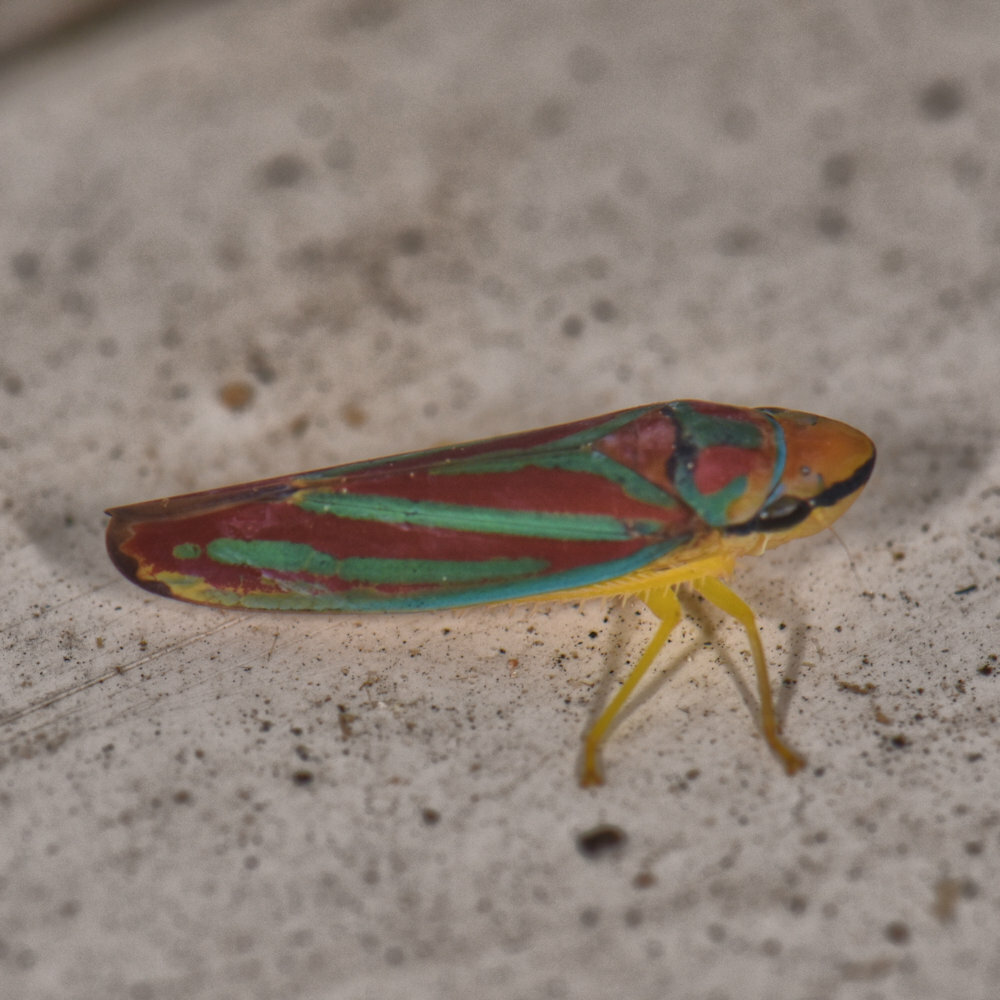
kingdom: Animalia
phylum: Arthropoda
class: Insecta
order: Hemiptera
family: Cicadellidae
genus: Graphocephala
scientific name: Graphocephala coccinea
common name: Candy-striped leafhopper
